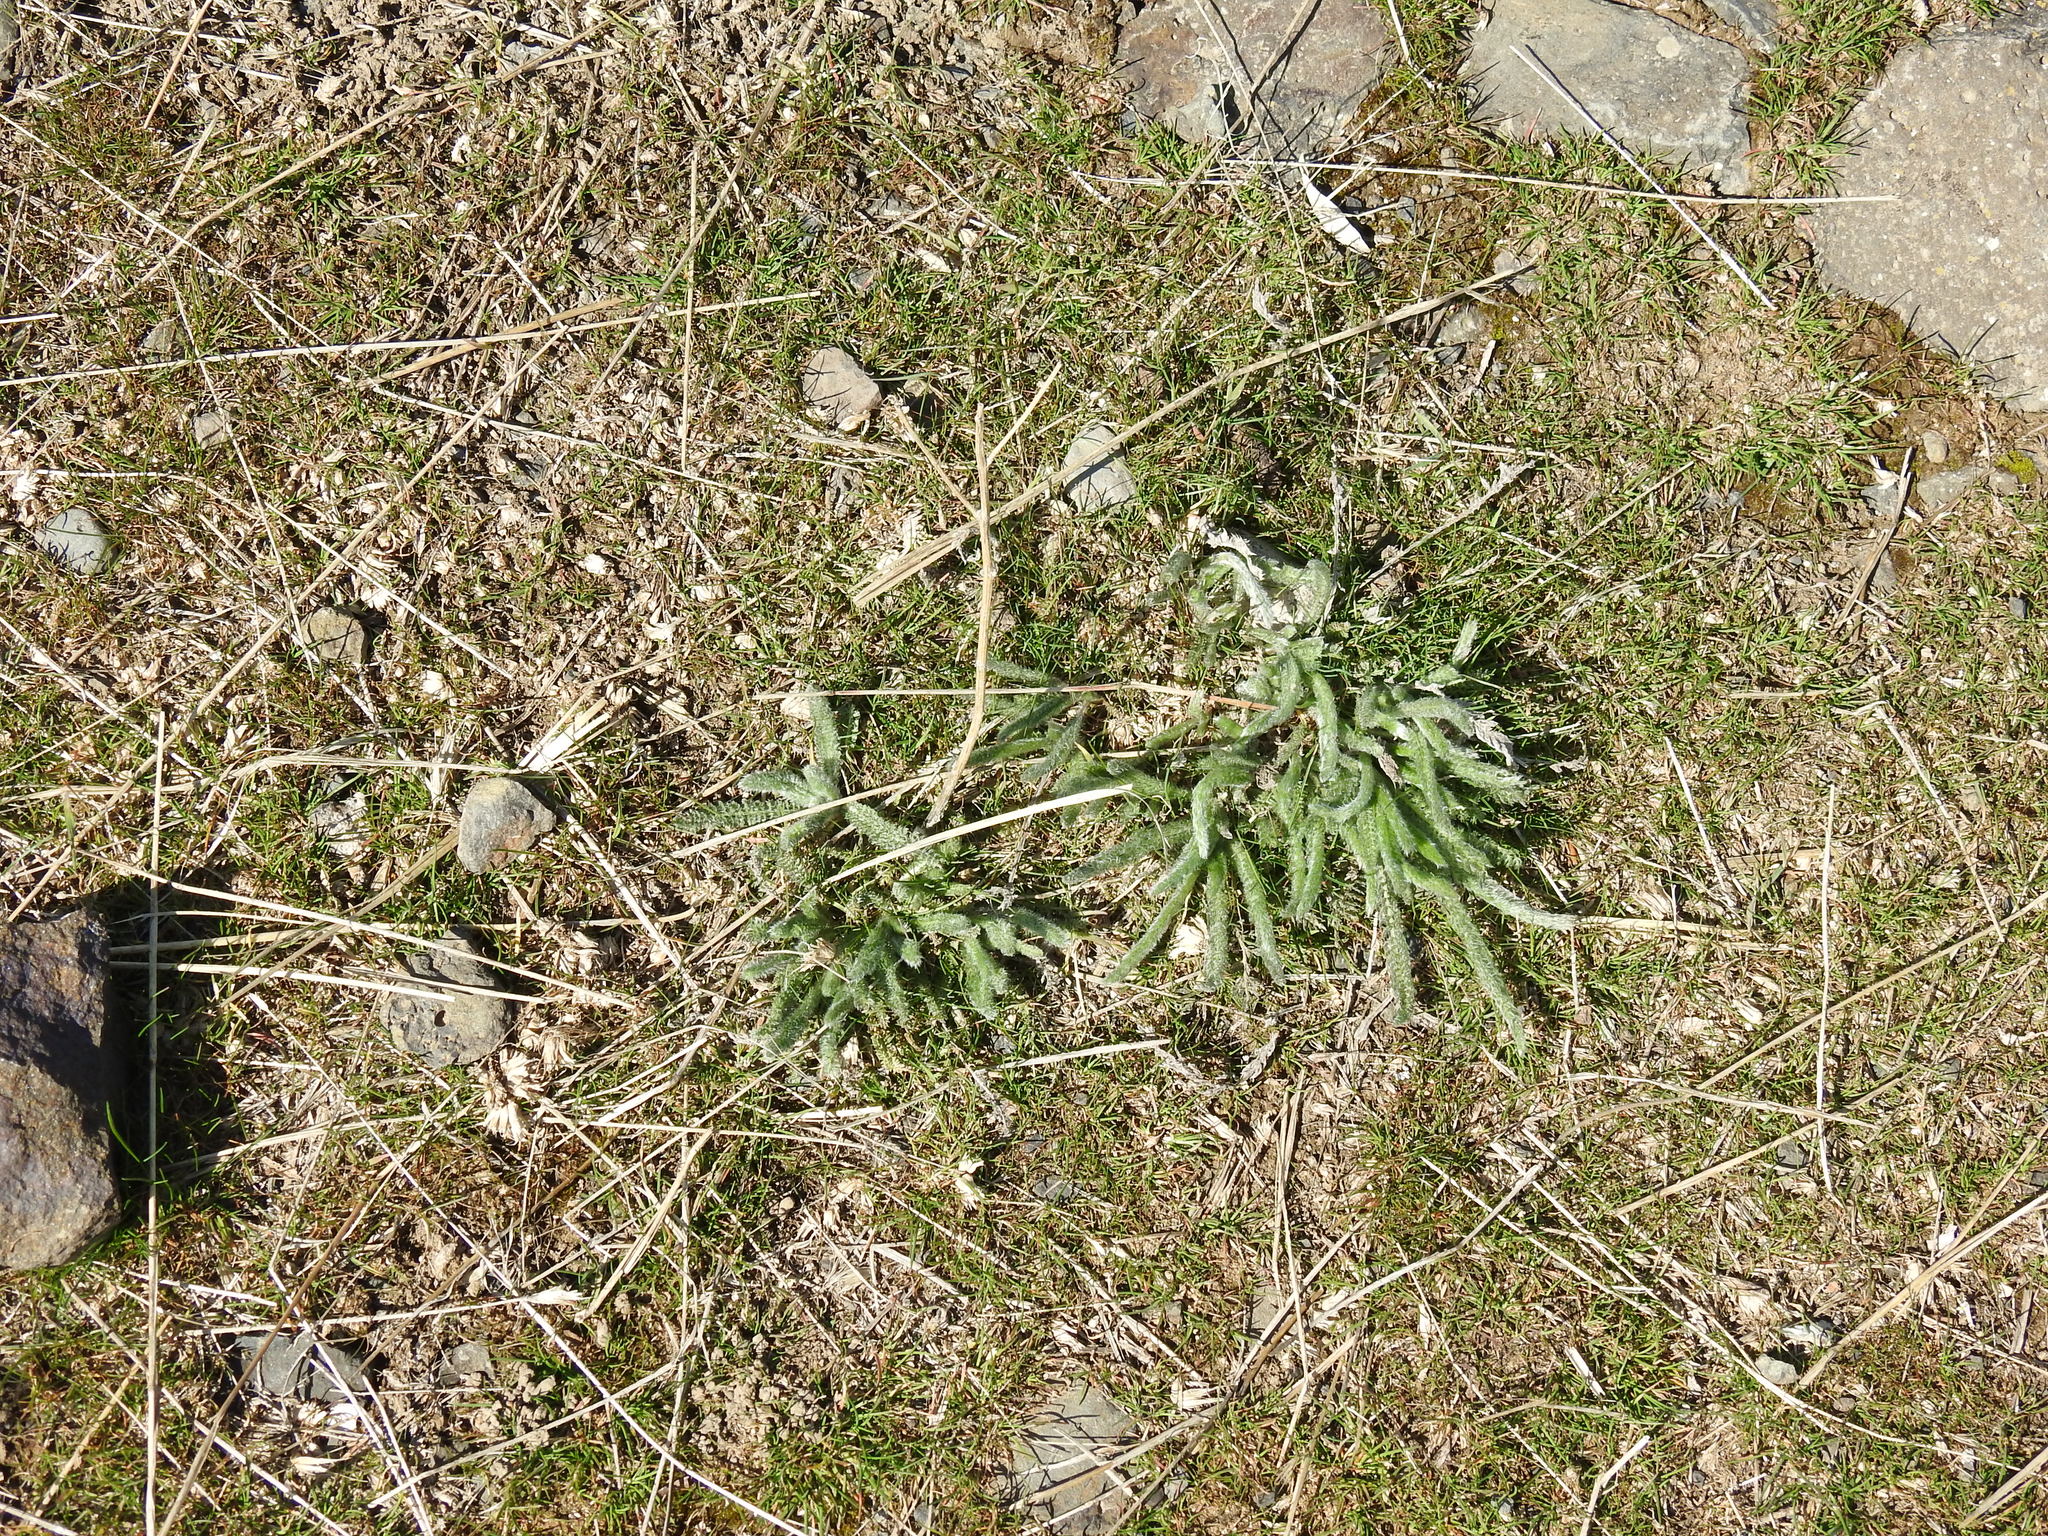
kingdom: Plantae
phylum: Tracheophyta
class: Magnoliopsida
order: Asterales
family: Asteraceae
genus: Achillea
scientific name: Achillea millefolium
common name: Yarrow
